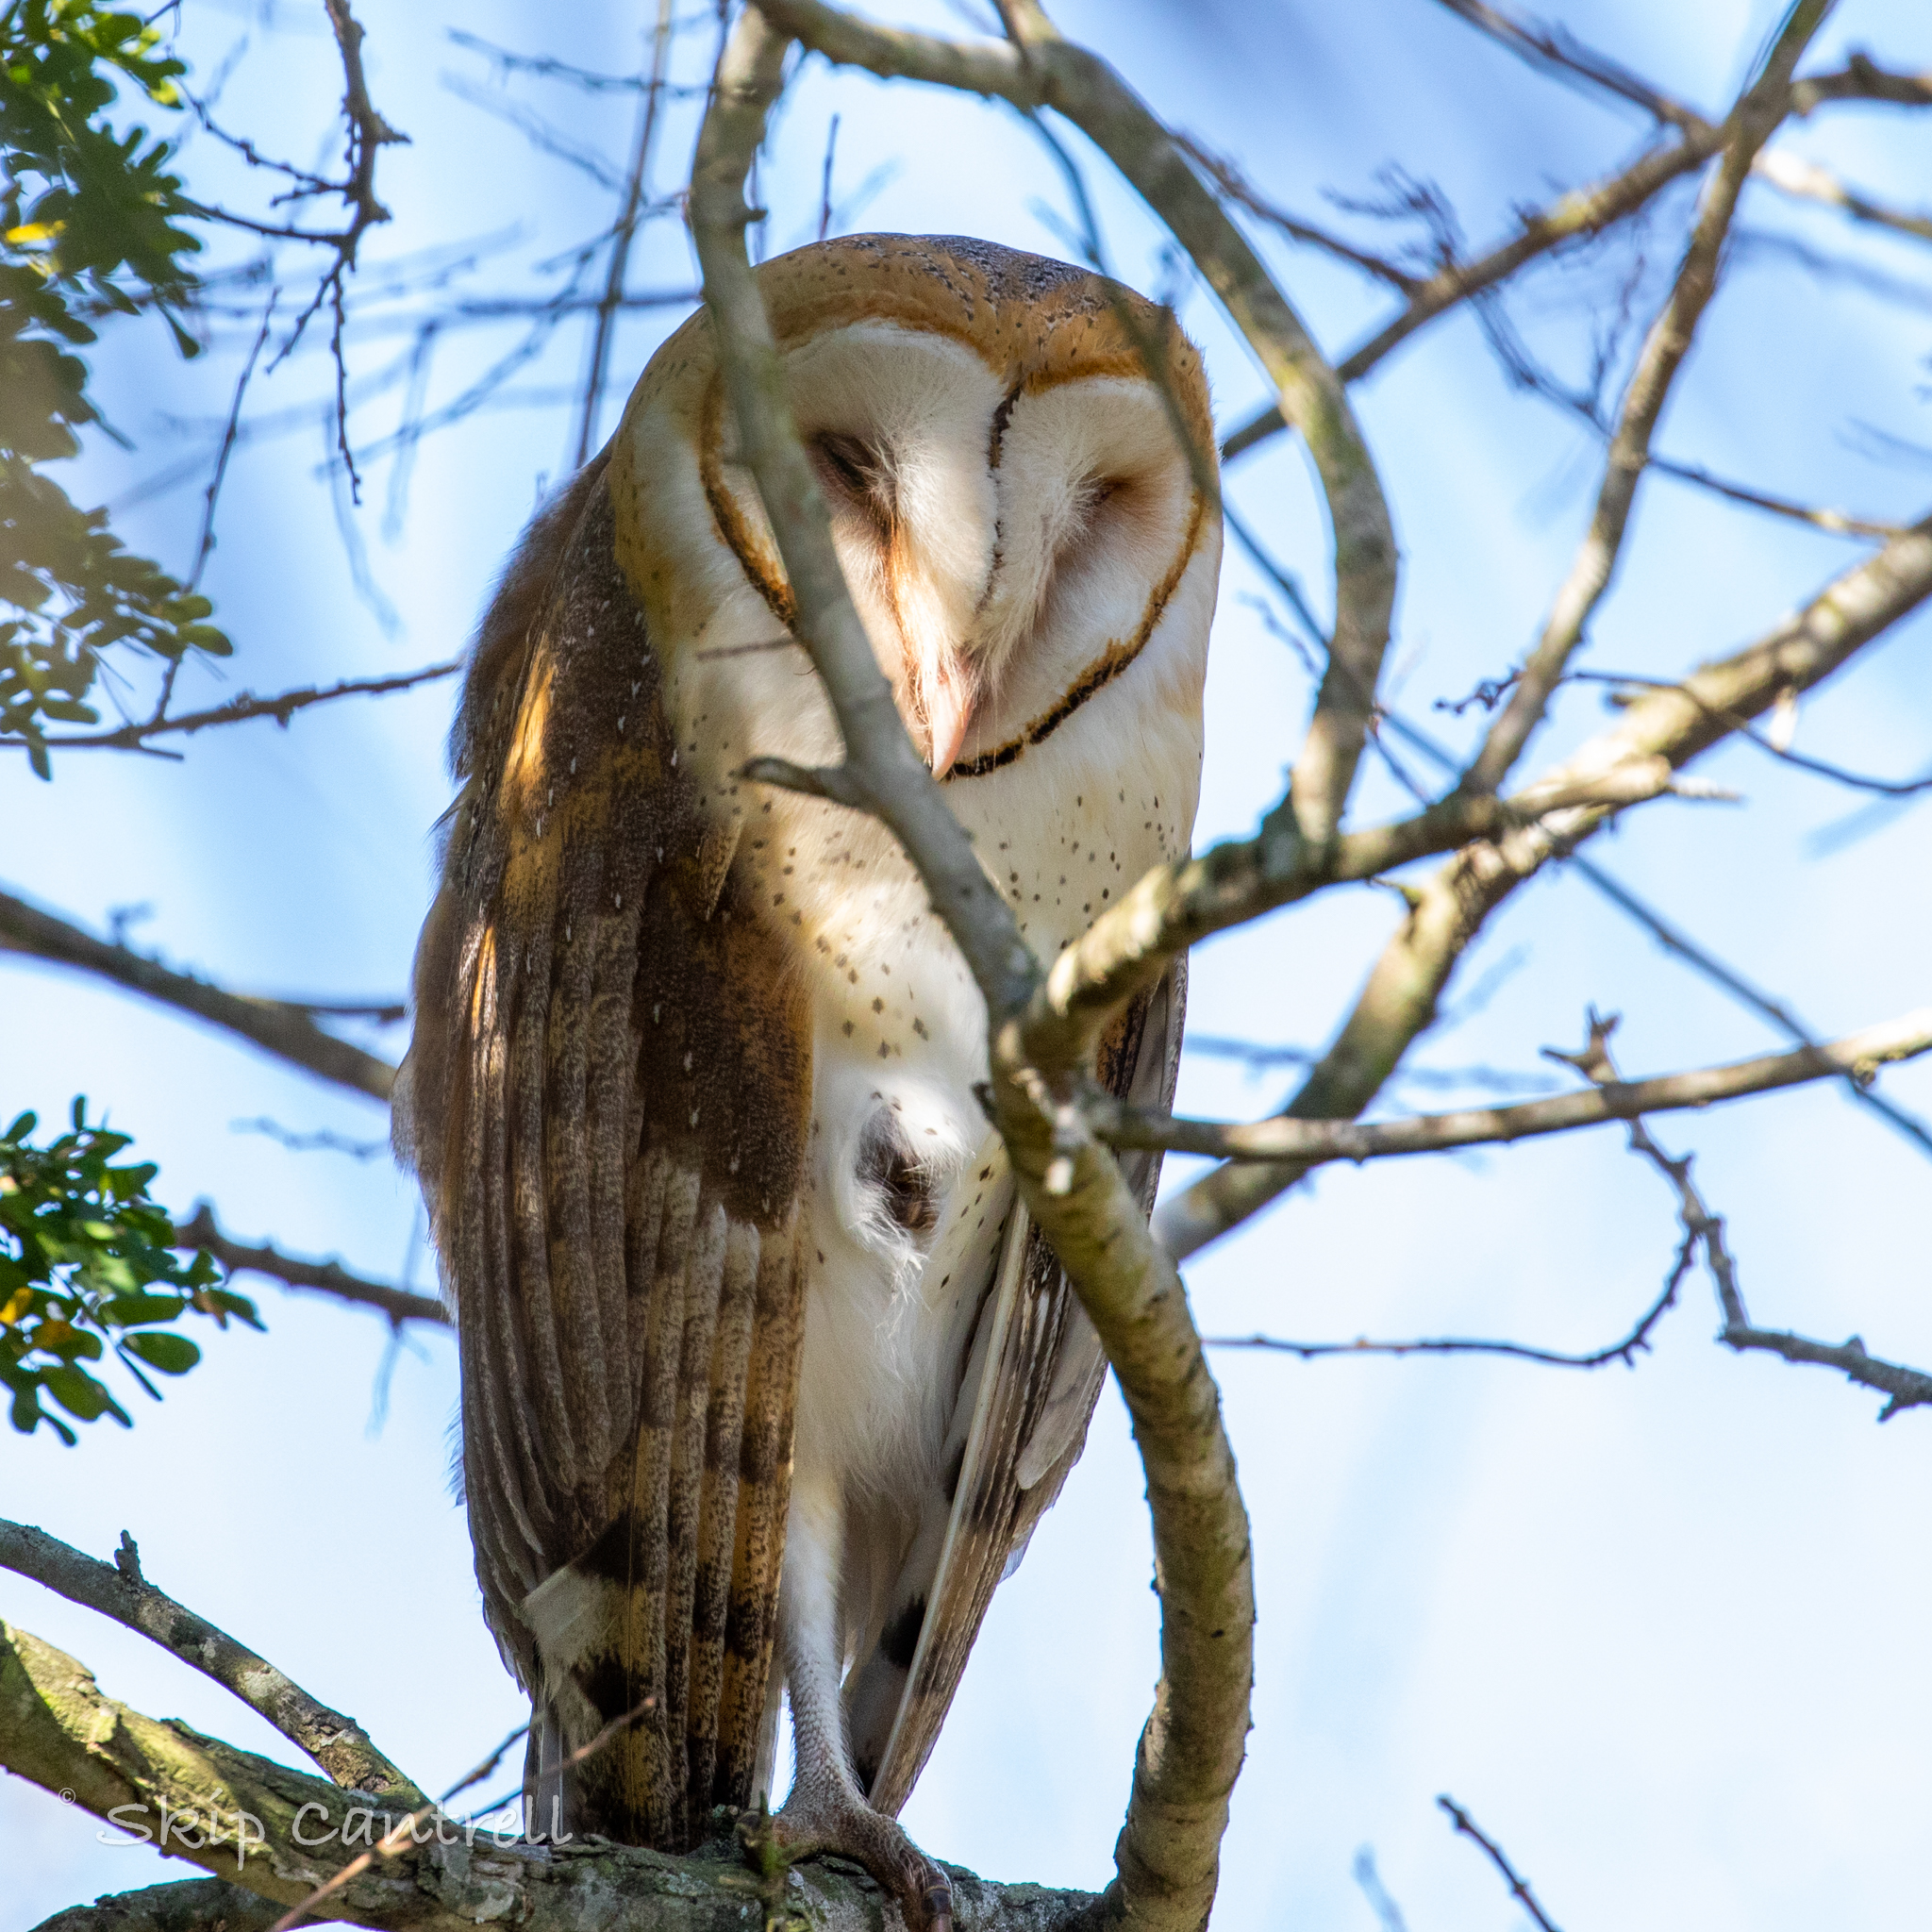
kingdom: Animalia
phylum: Chordata
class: Aves
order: Strigiformes
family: Tytonidae
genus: Tyto
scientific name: Tyto alba
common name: Barn owl
